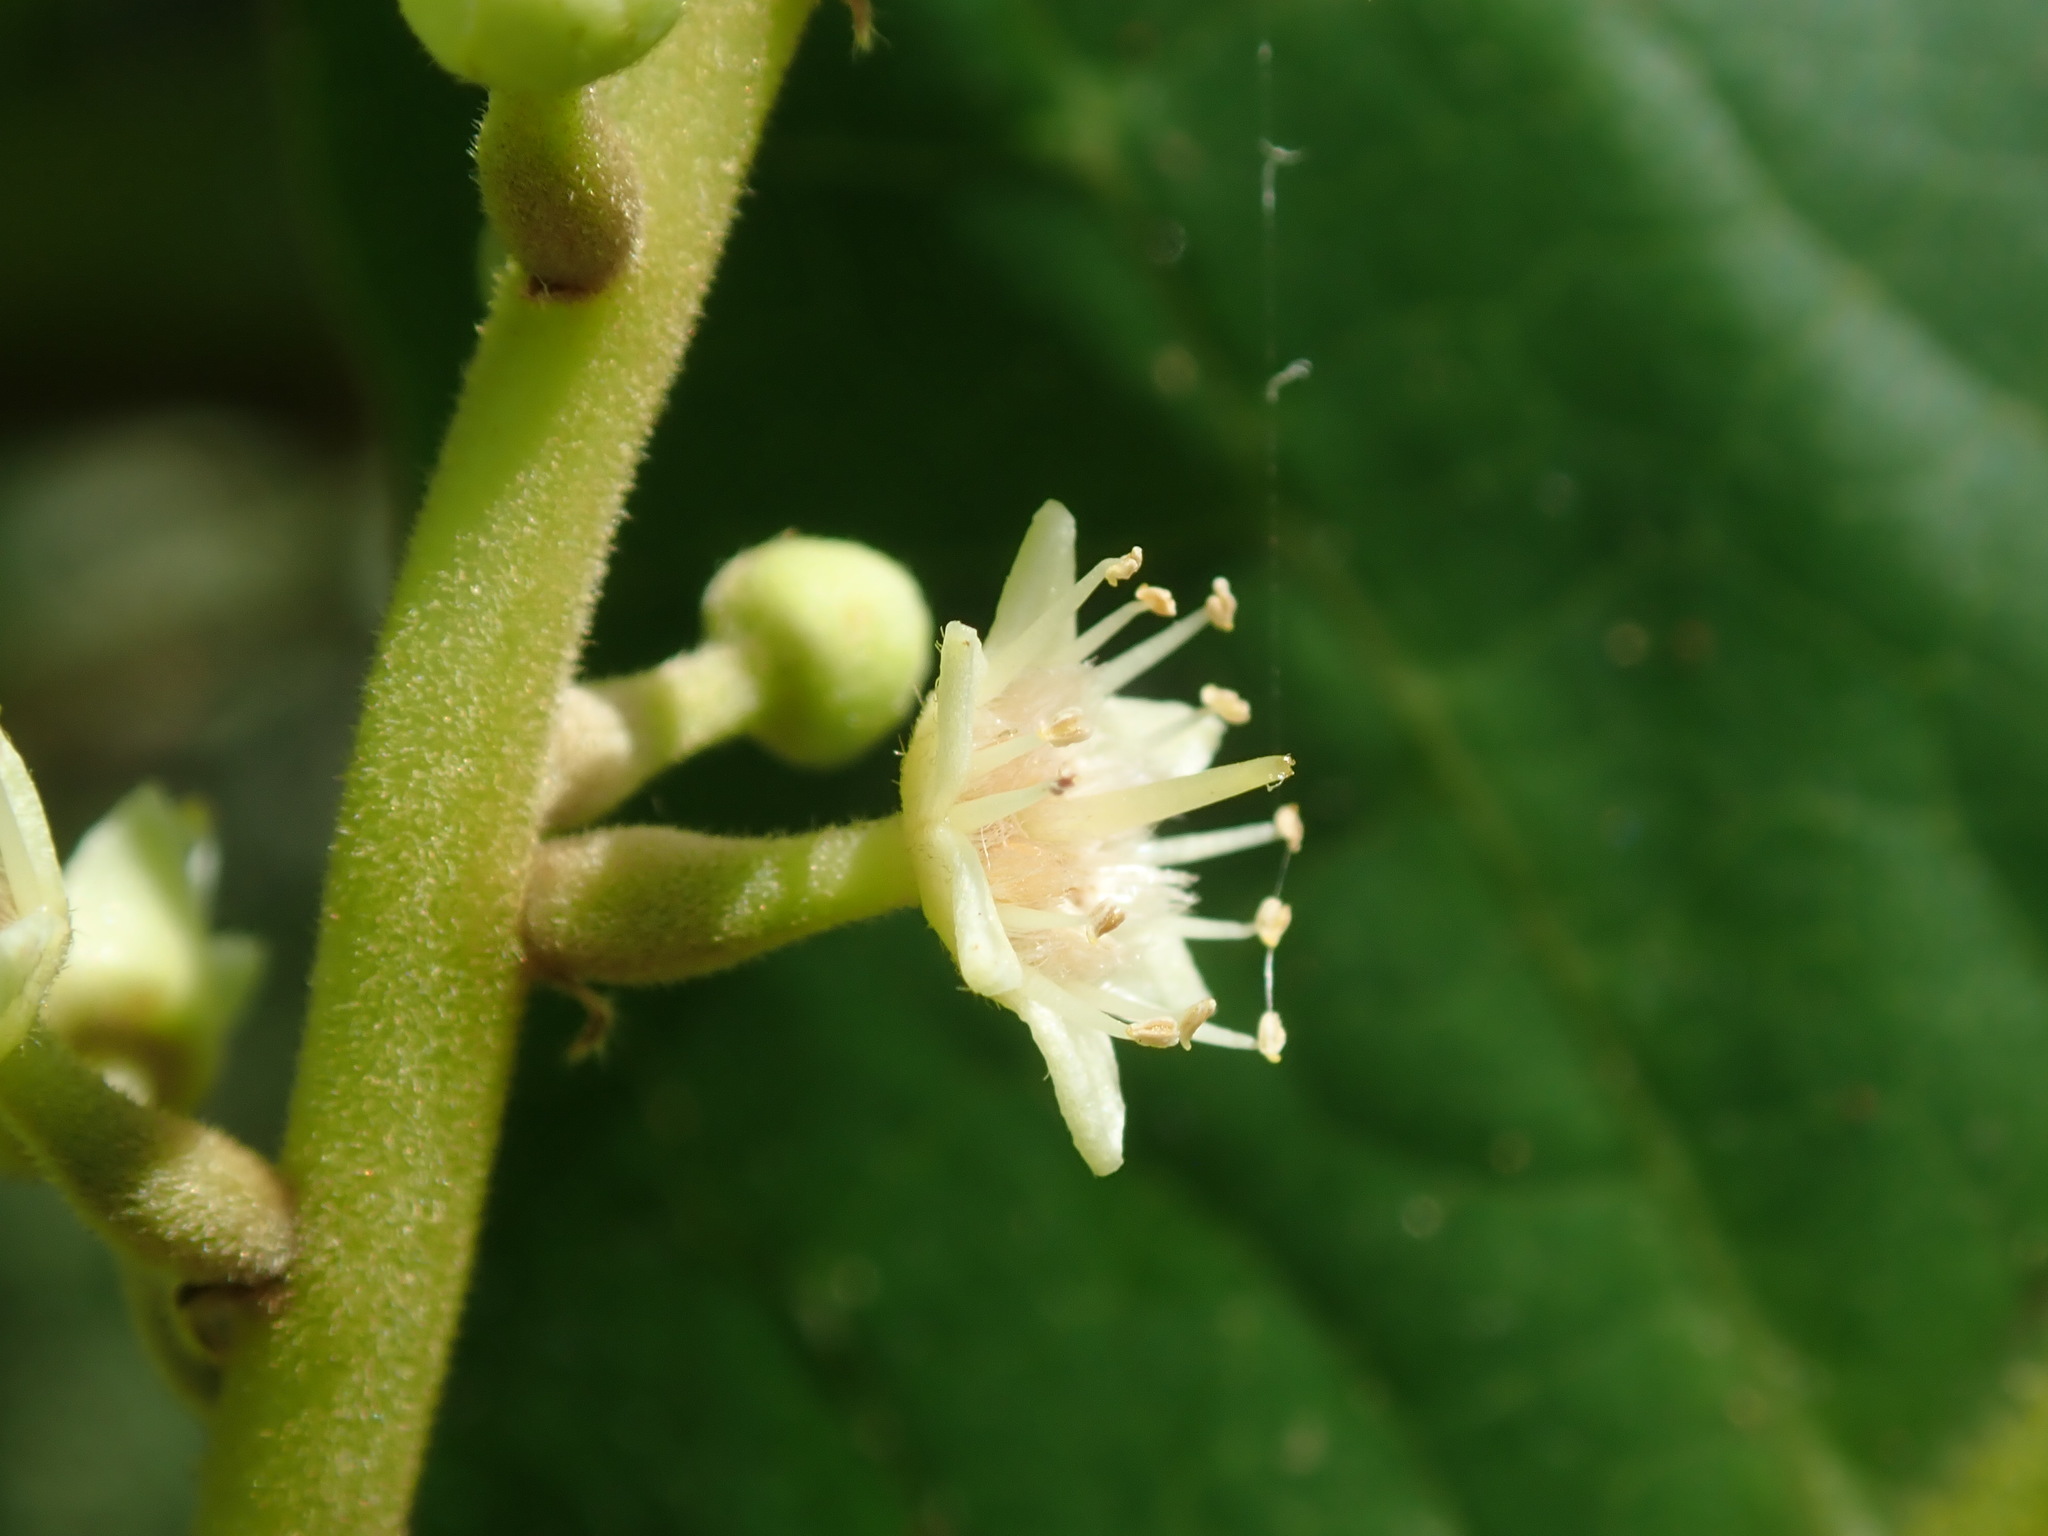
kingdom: Plantae
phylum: Tracheophyta
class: Magnoliopsida
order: Myrtales
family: Combretaceae
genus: Terminalia
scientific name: Terminalia catappa
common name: Tropical almond
